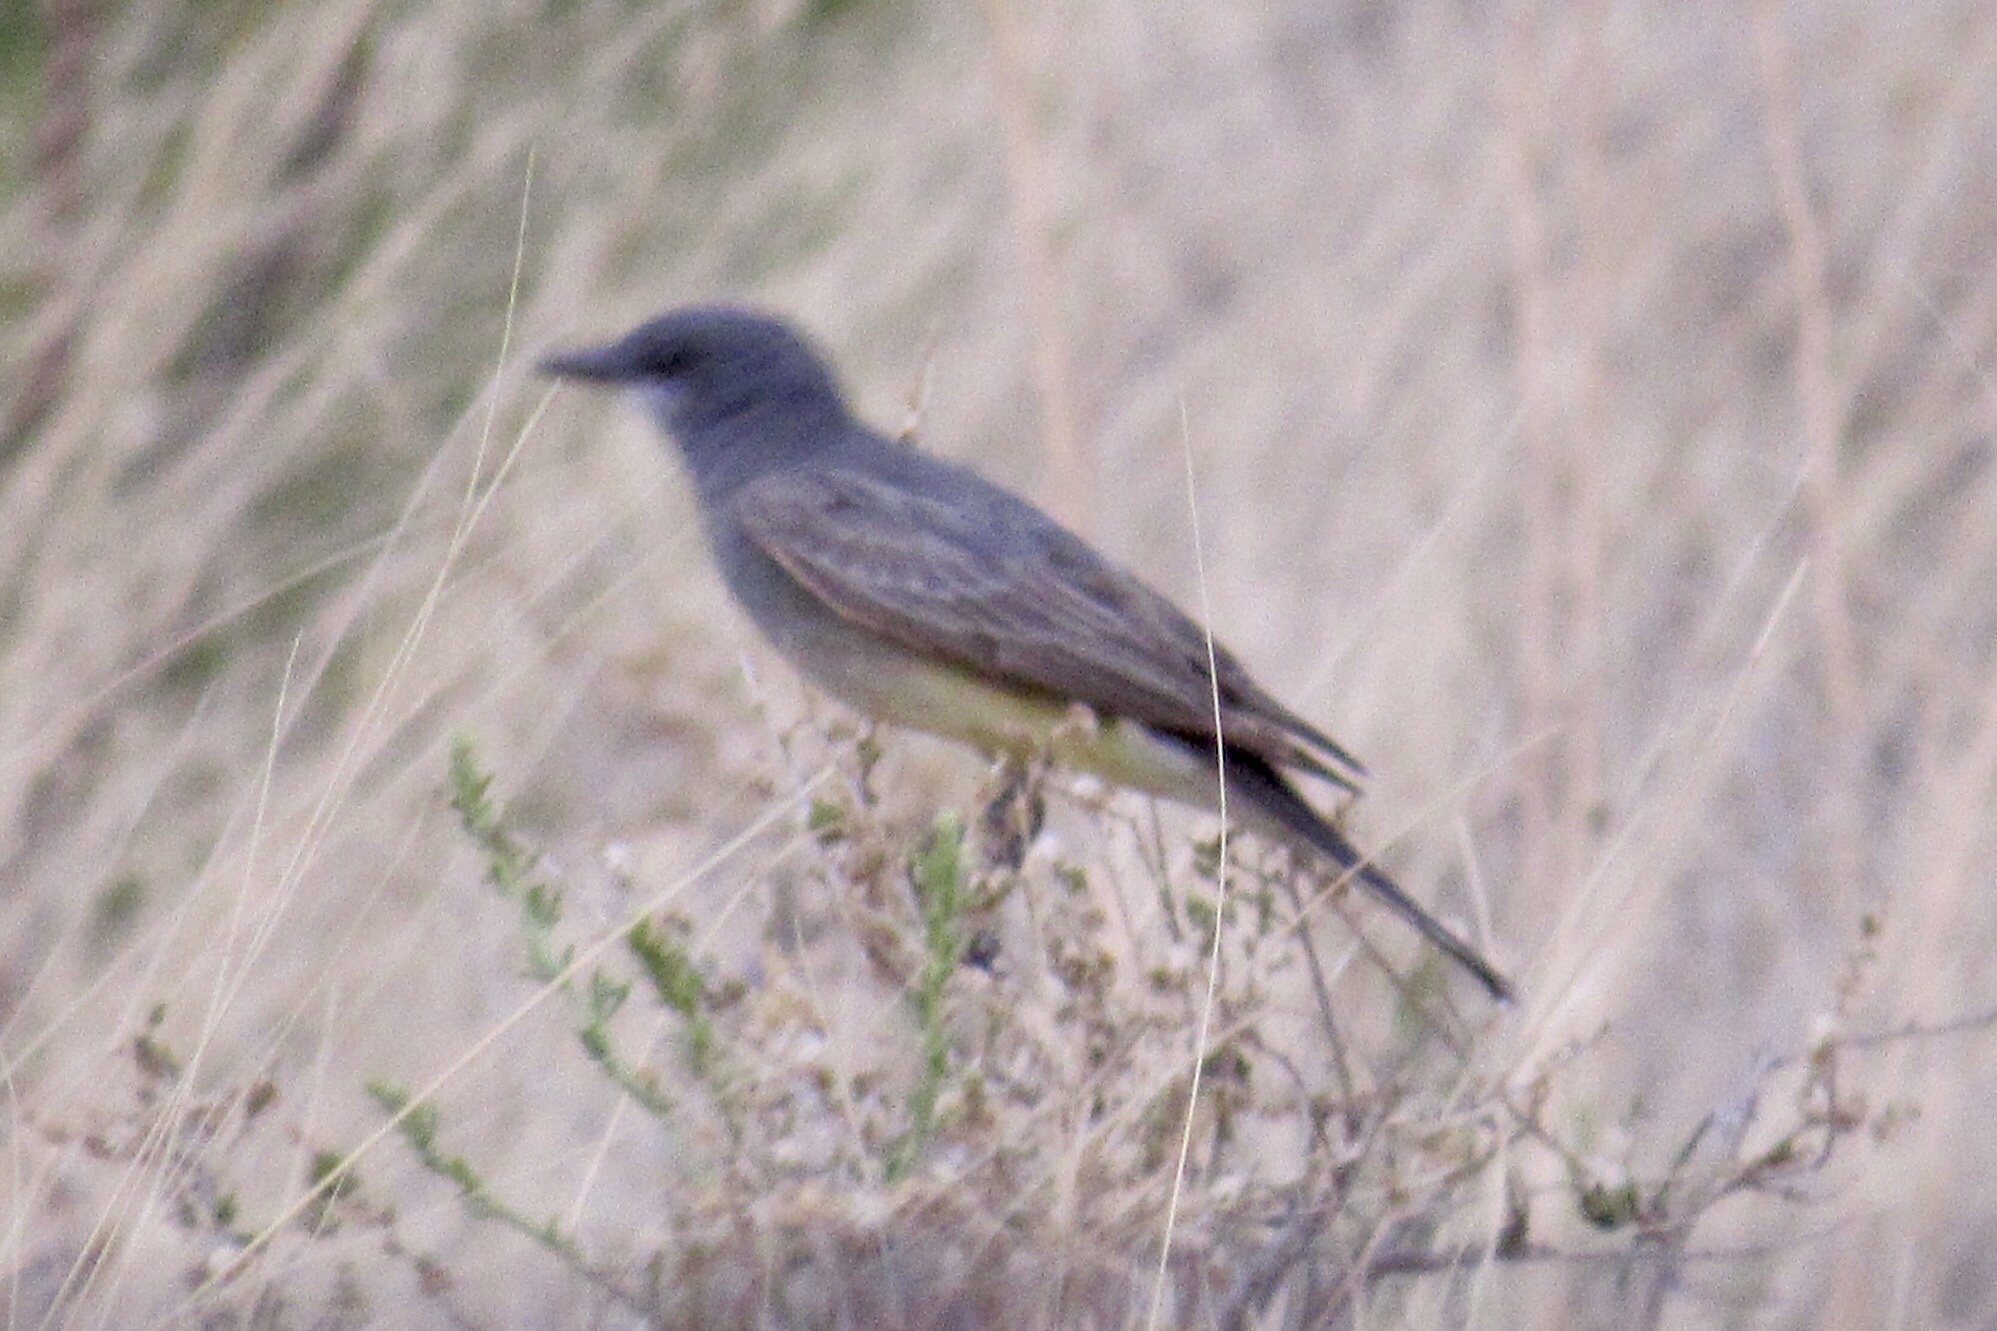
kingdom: Animalia
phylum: Chordata
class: Aves
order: Passeriformes
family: Tyrannidae
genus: Tyrannus
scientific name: Tyrannus vociferans
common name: Cassin's kingbird
